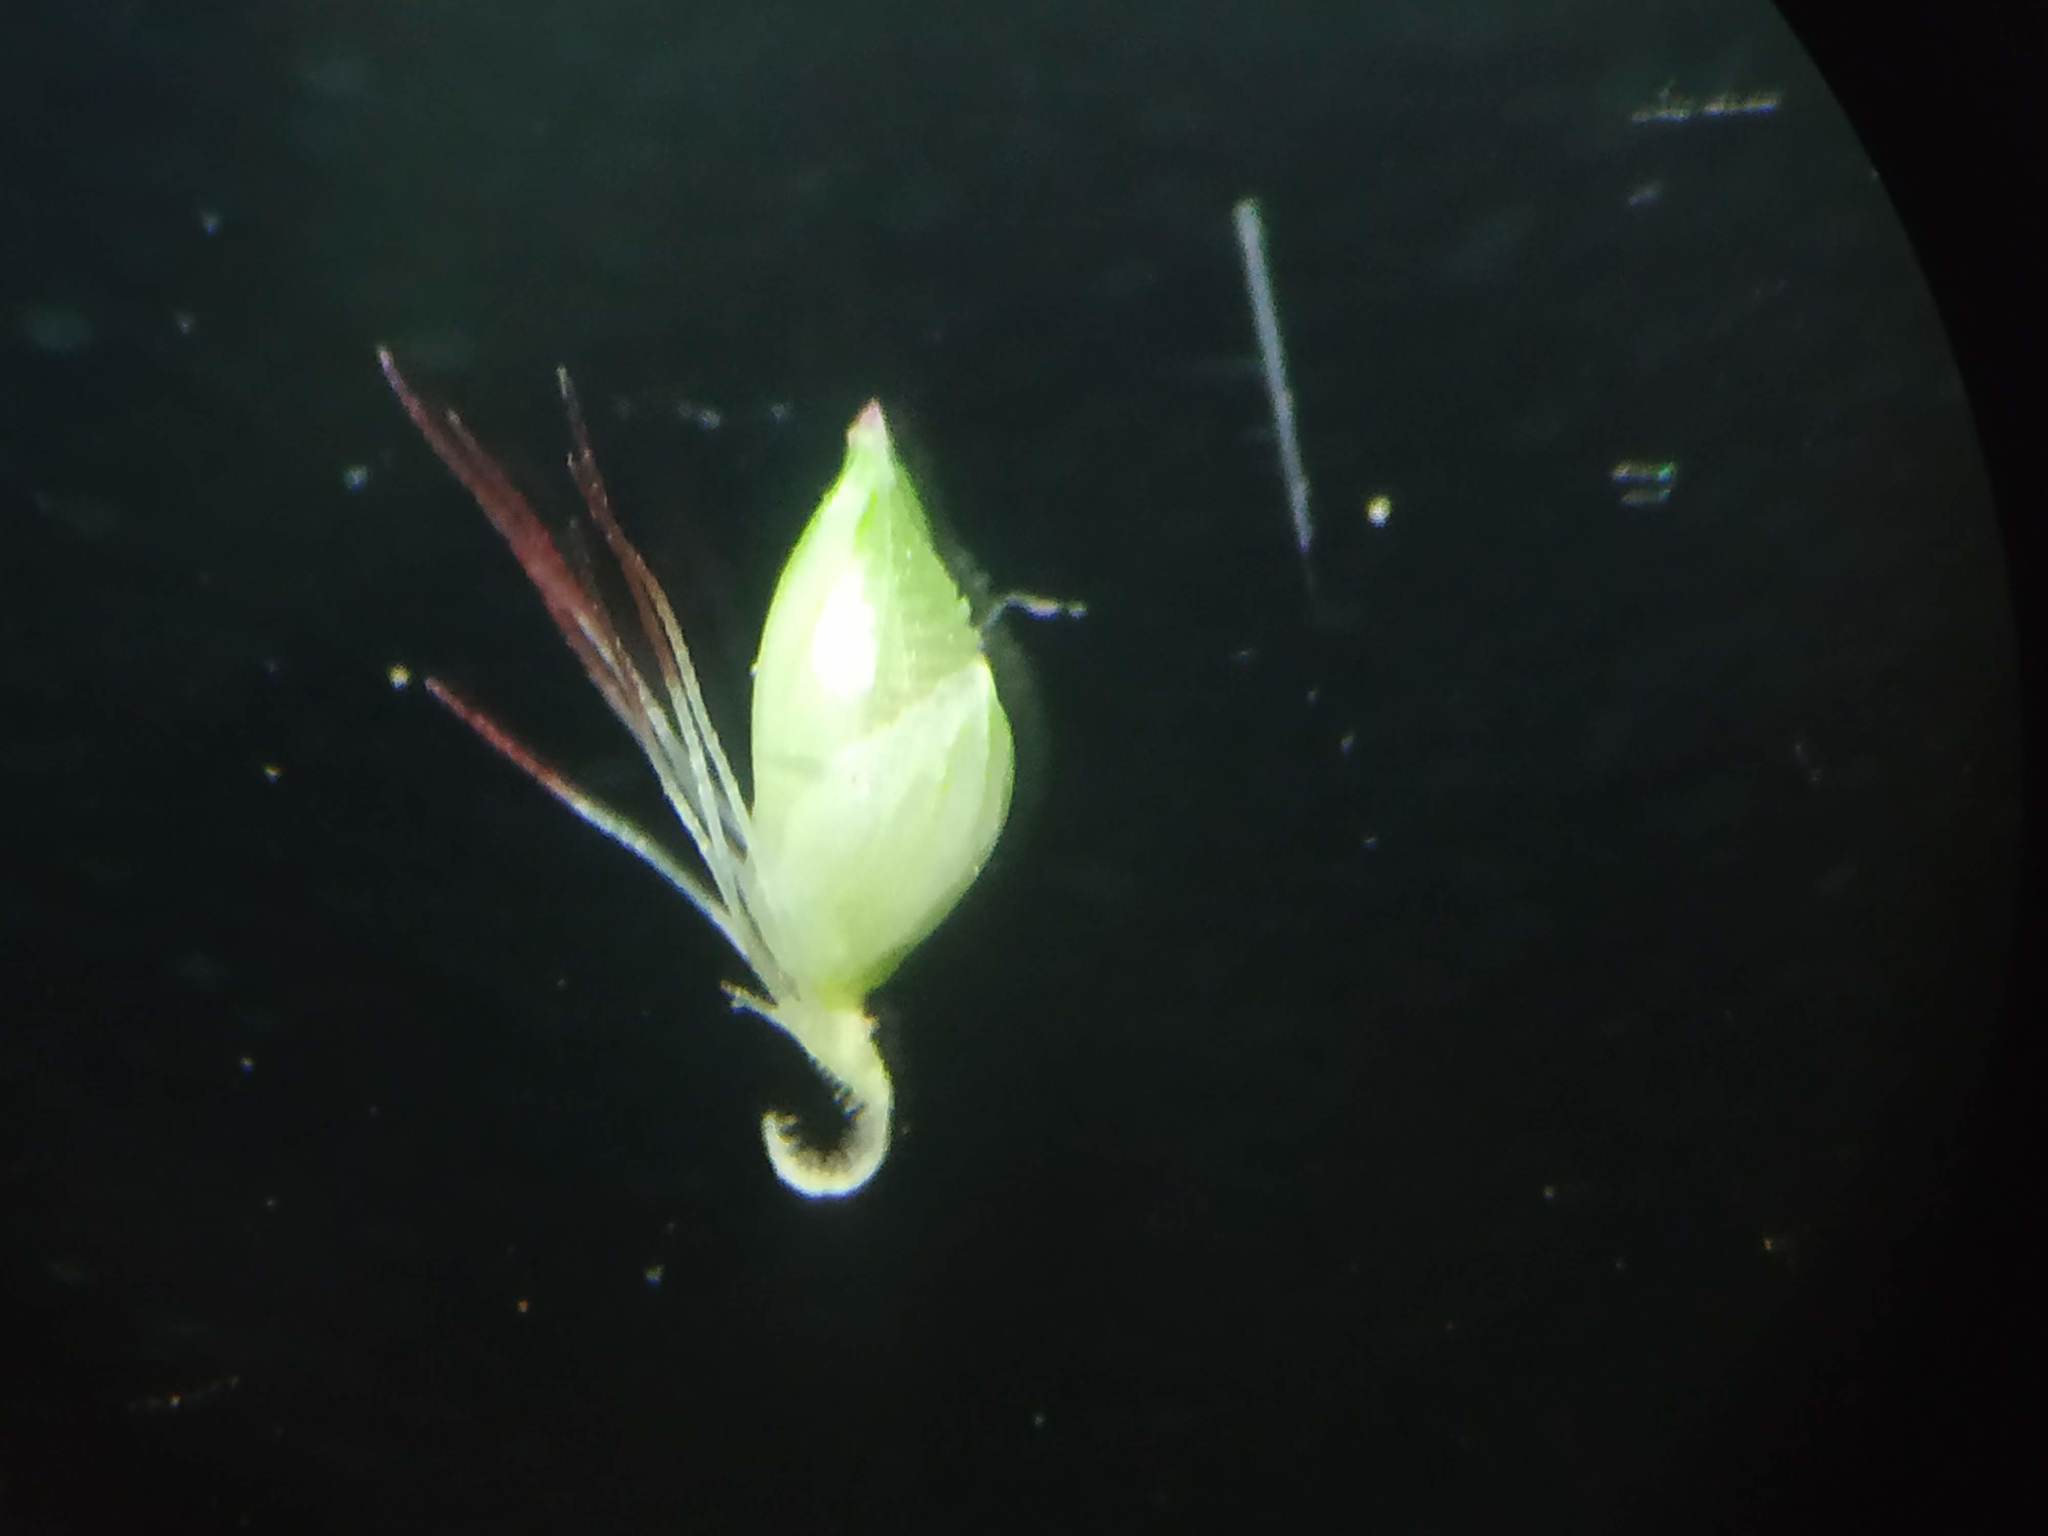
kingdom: Plantae
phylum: Tracheophyta
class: Liliopsida
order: Poales
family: Poaceae
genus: Setaria
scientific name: Setaria pumila
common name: Yellow bristle-grass
